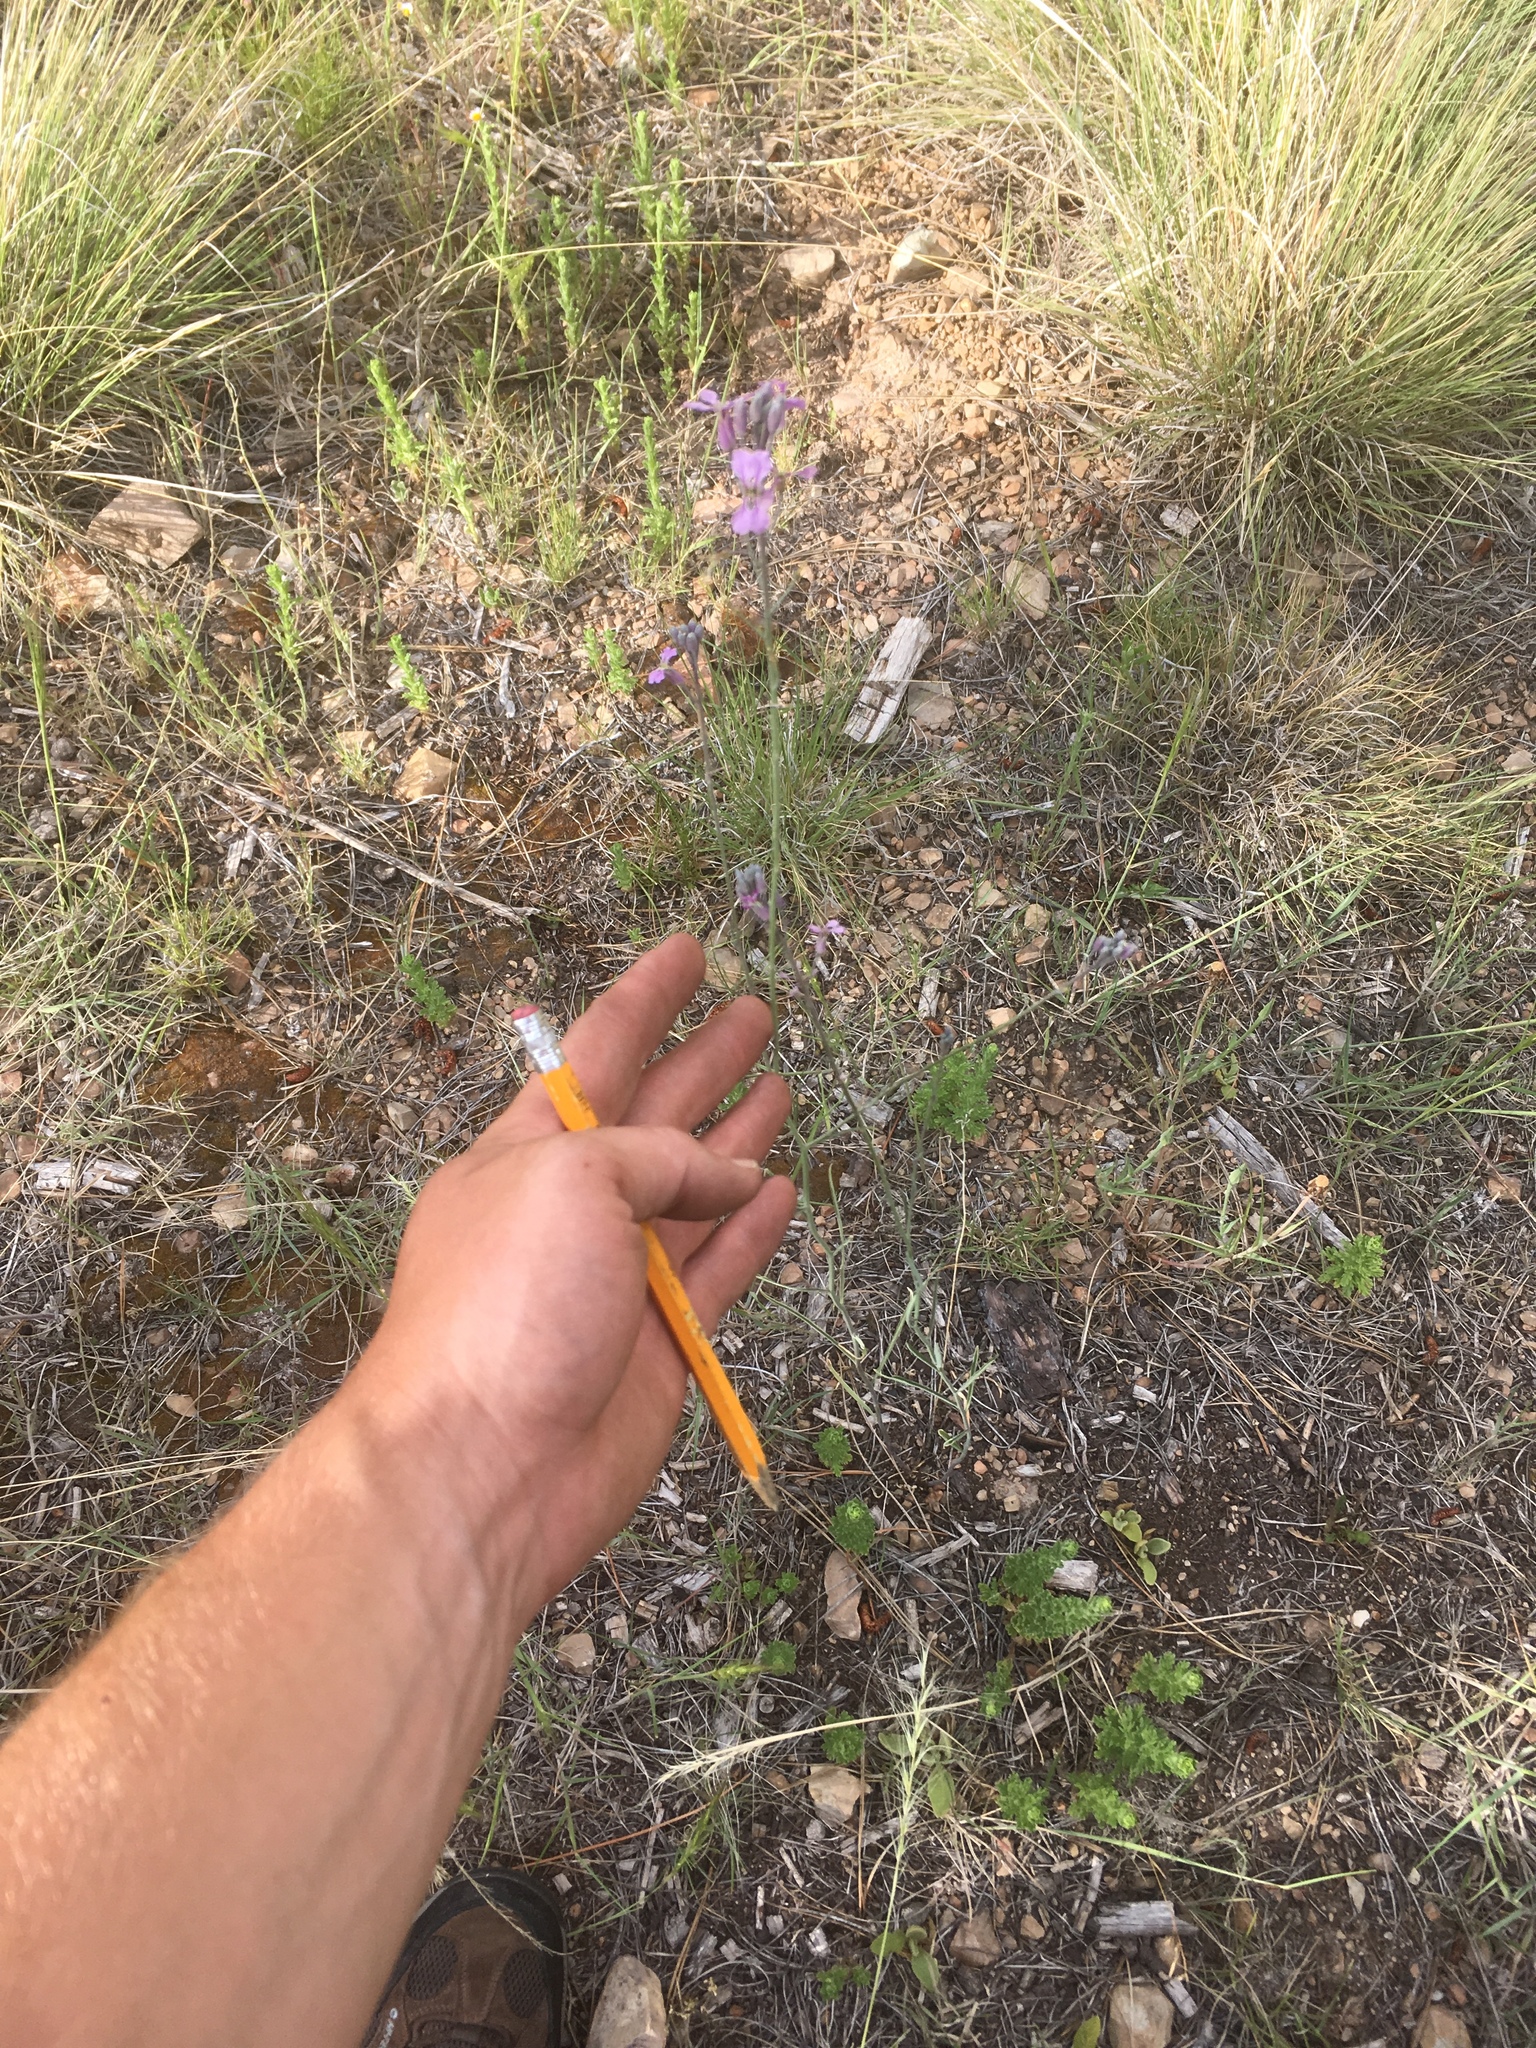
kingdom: Plantae
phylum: Tracheophyta
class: Magnoliopsida
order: Brassicales
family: Brassicaceae
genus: Hesperidanthus
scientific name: Hesperidanthus linearifolius
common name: Slim-leaf plains mustard
